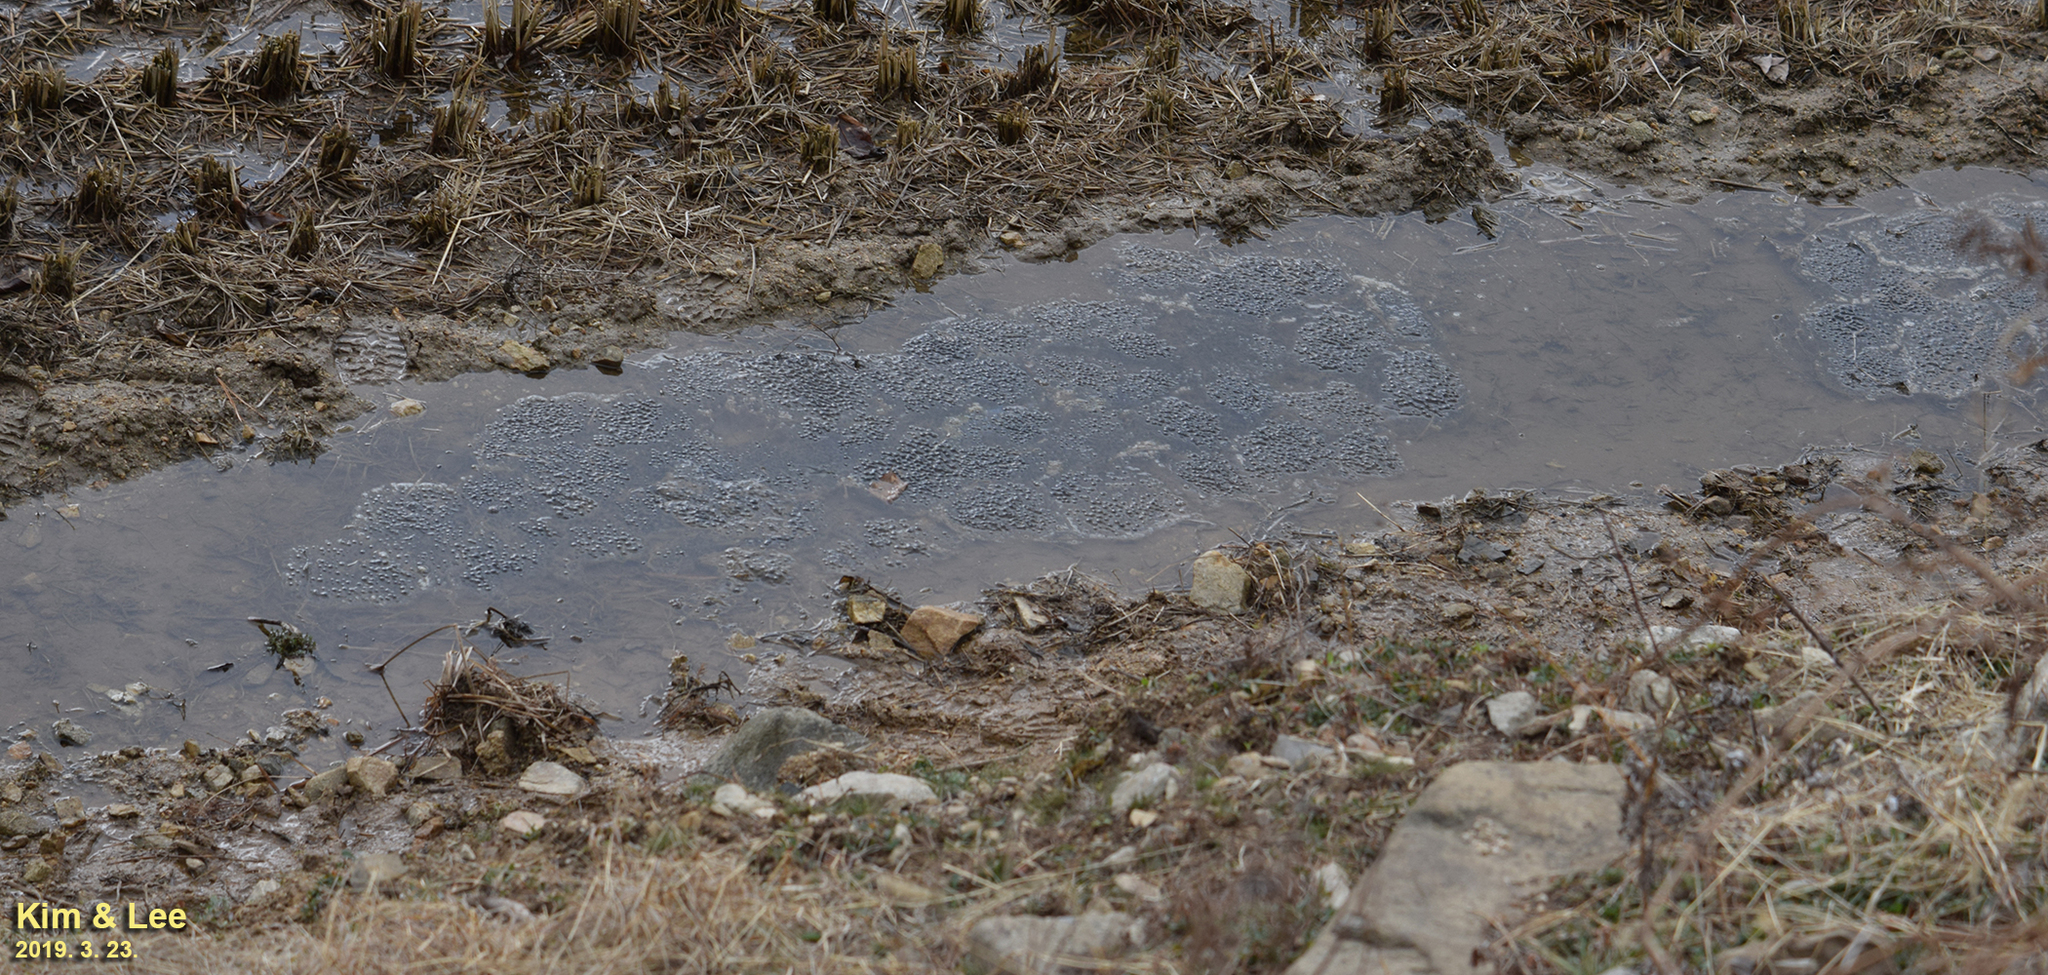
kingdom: Animalia
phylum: Chordata
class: Amphibia
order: Anura
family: Ranidae
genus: Rana
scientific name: Rana uenoi
